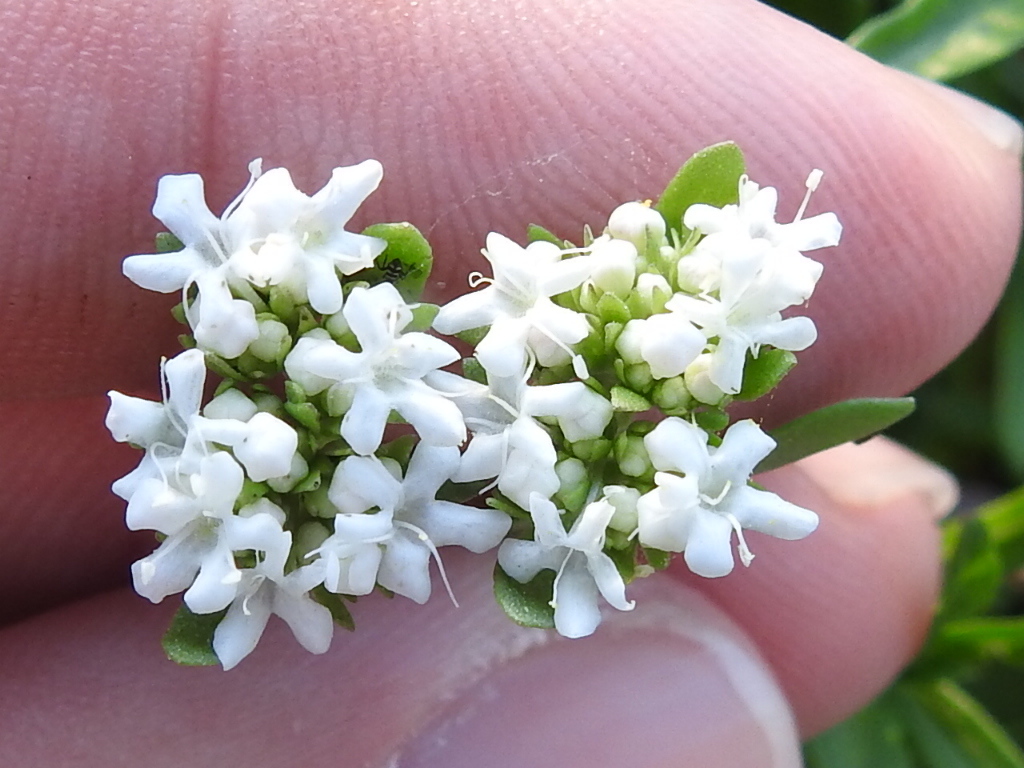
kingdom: Plantae
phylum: Tracheophyta
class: Magnoliopsida
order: Dipsacales
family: Caprifoliaceae
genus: Valerianella
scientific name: Valerianella amarella
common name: Hariy cornsalad
